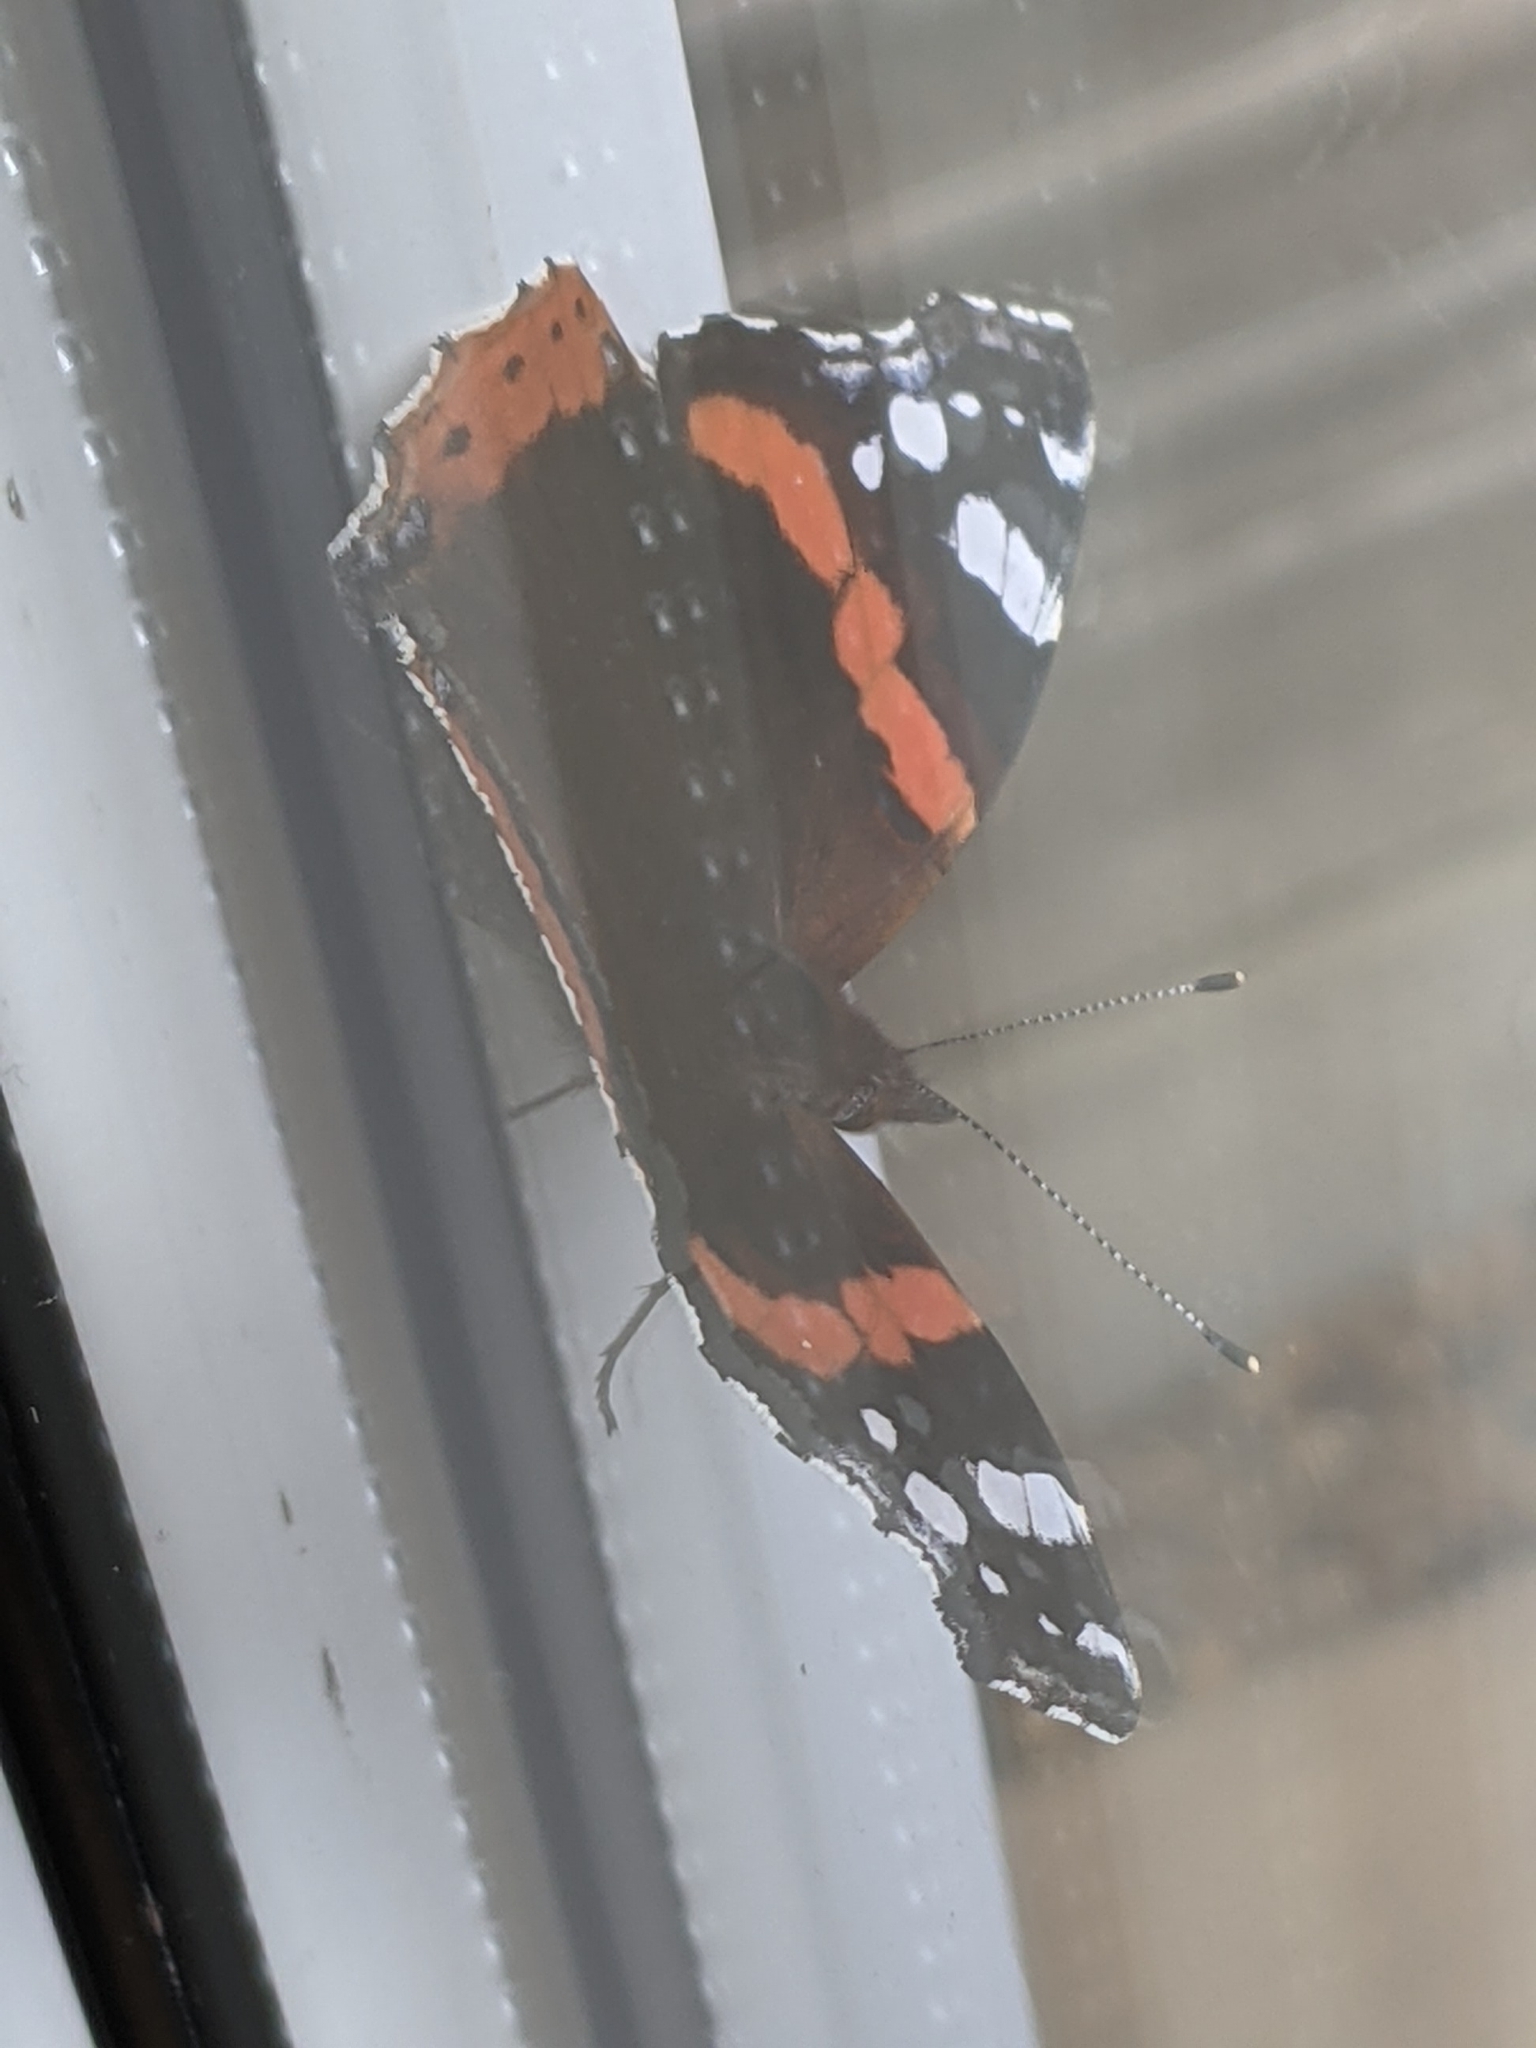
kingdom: Animalia
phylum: Arthropoda
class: Insecta
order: Lepidoptera
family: Nymphalidae
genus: Vanessa
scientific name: Vanessa atalanta
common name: Red admiral
